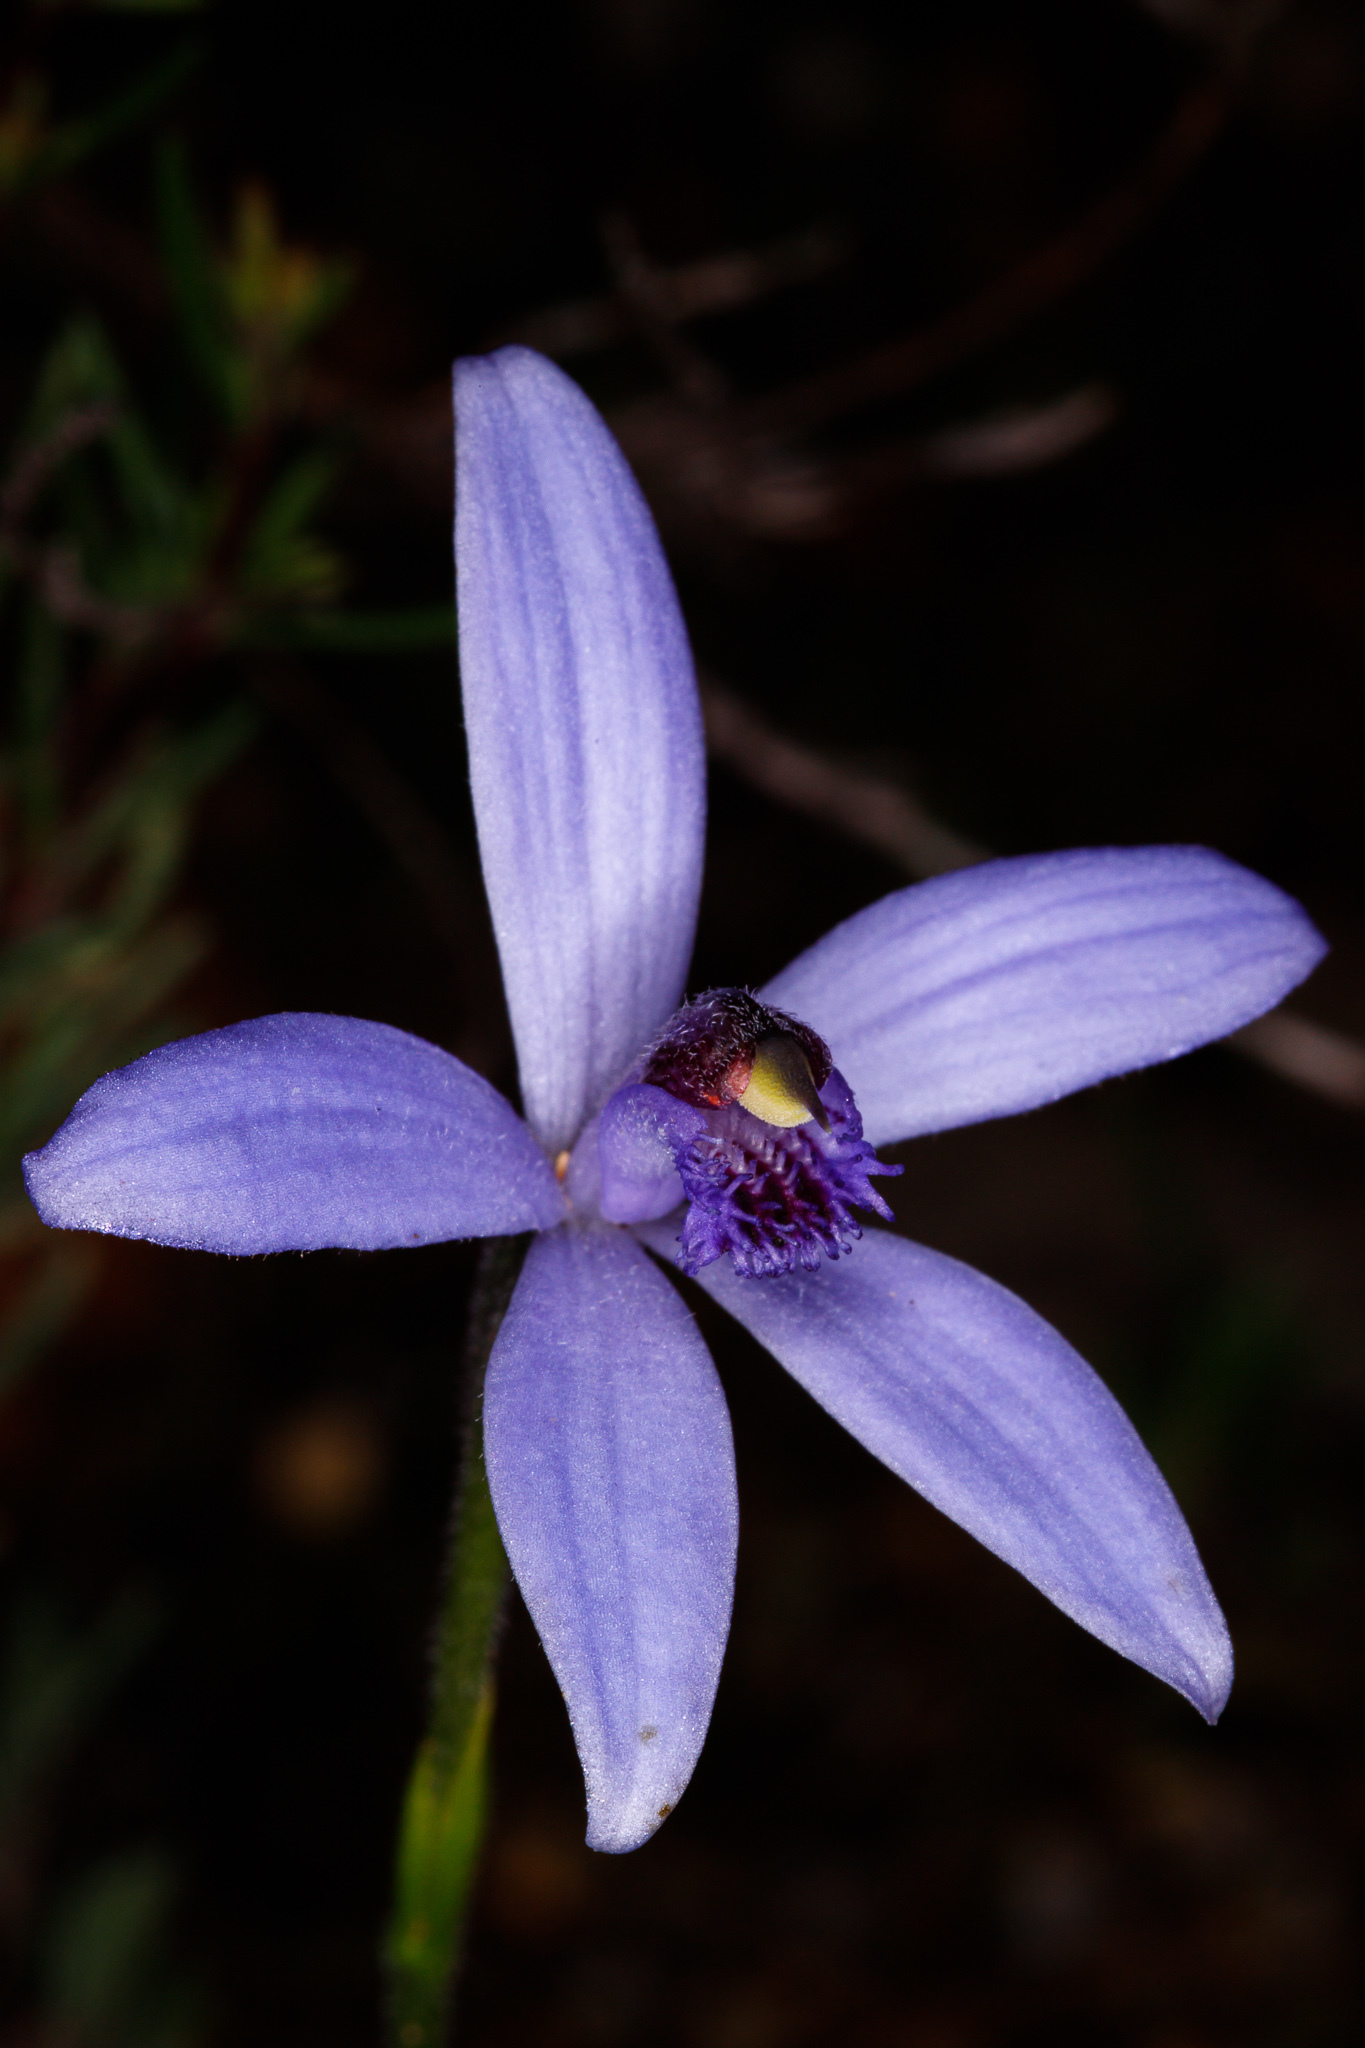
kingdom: Plantae
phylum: Tracheophyta
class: Liliopsida
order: Asparagales
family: Orchidaceae
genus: Pheladenia
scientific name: Pheladenia deformis
